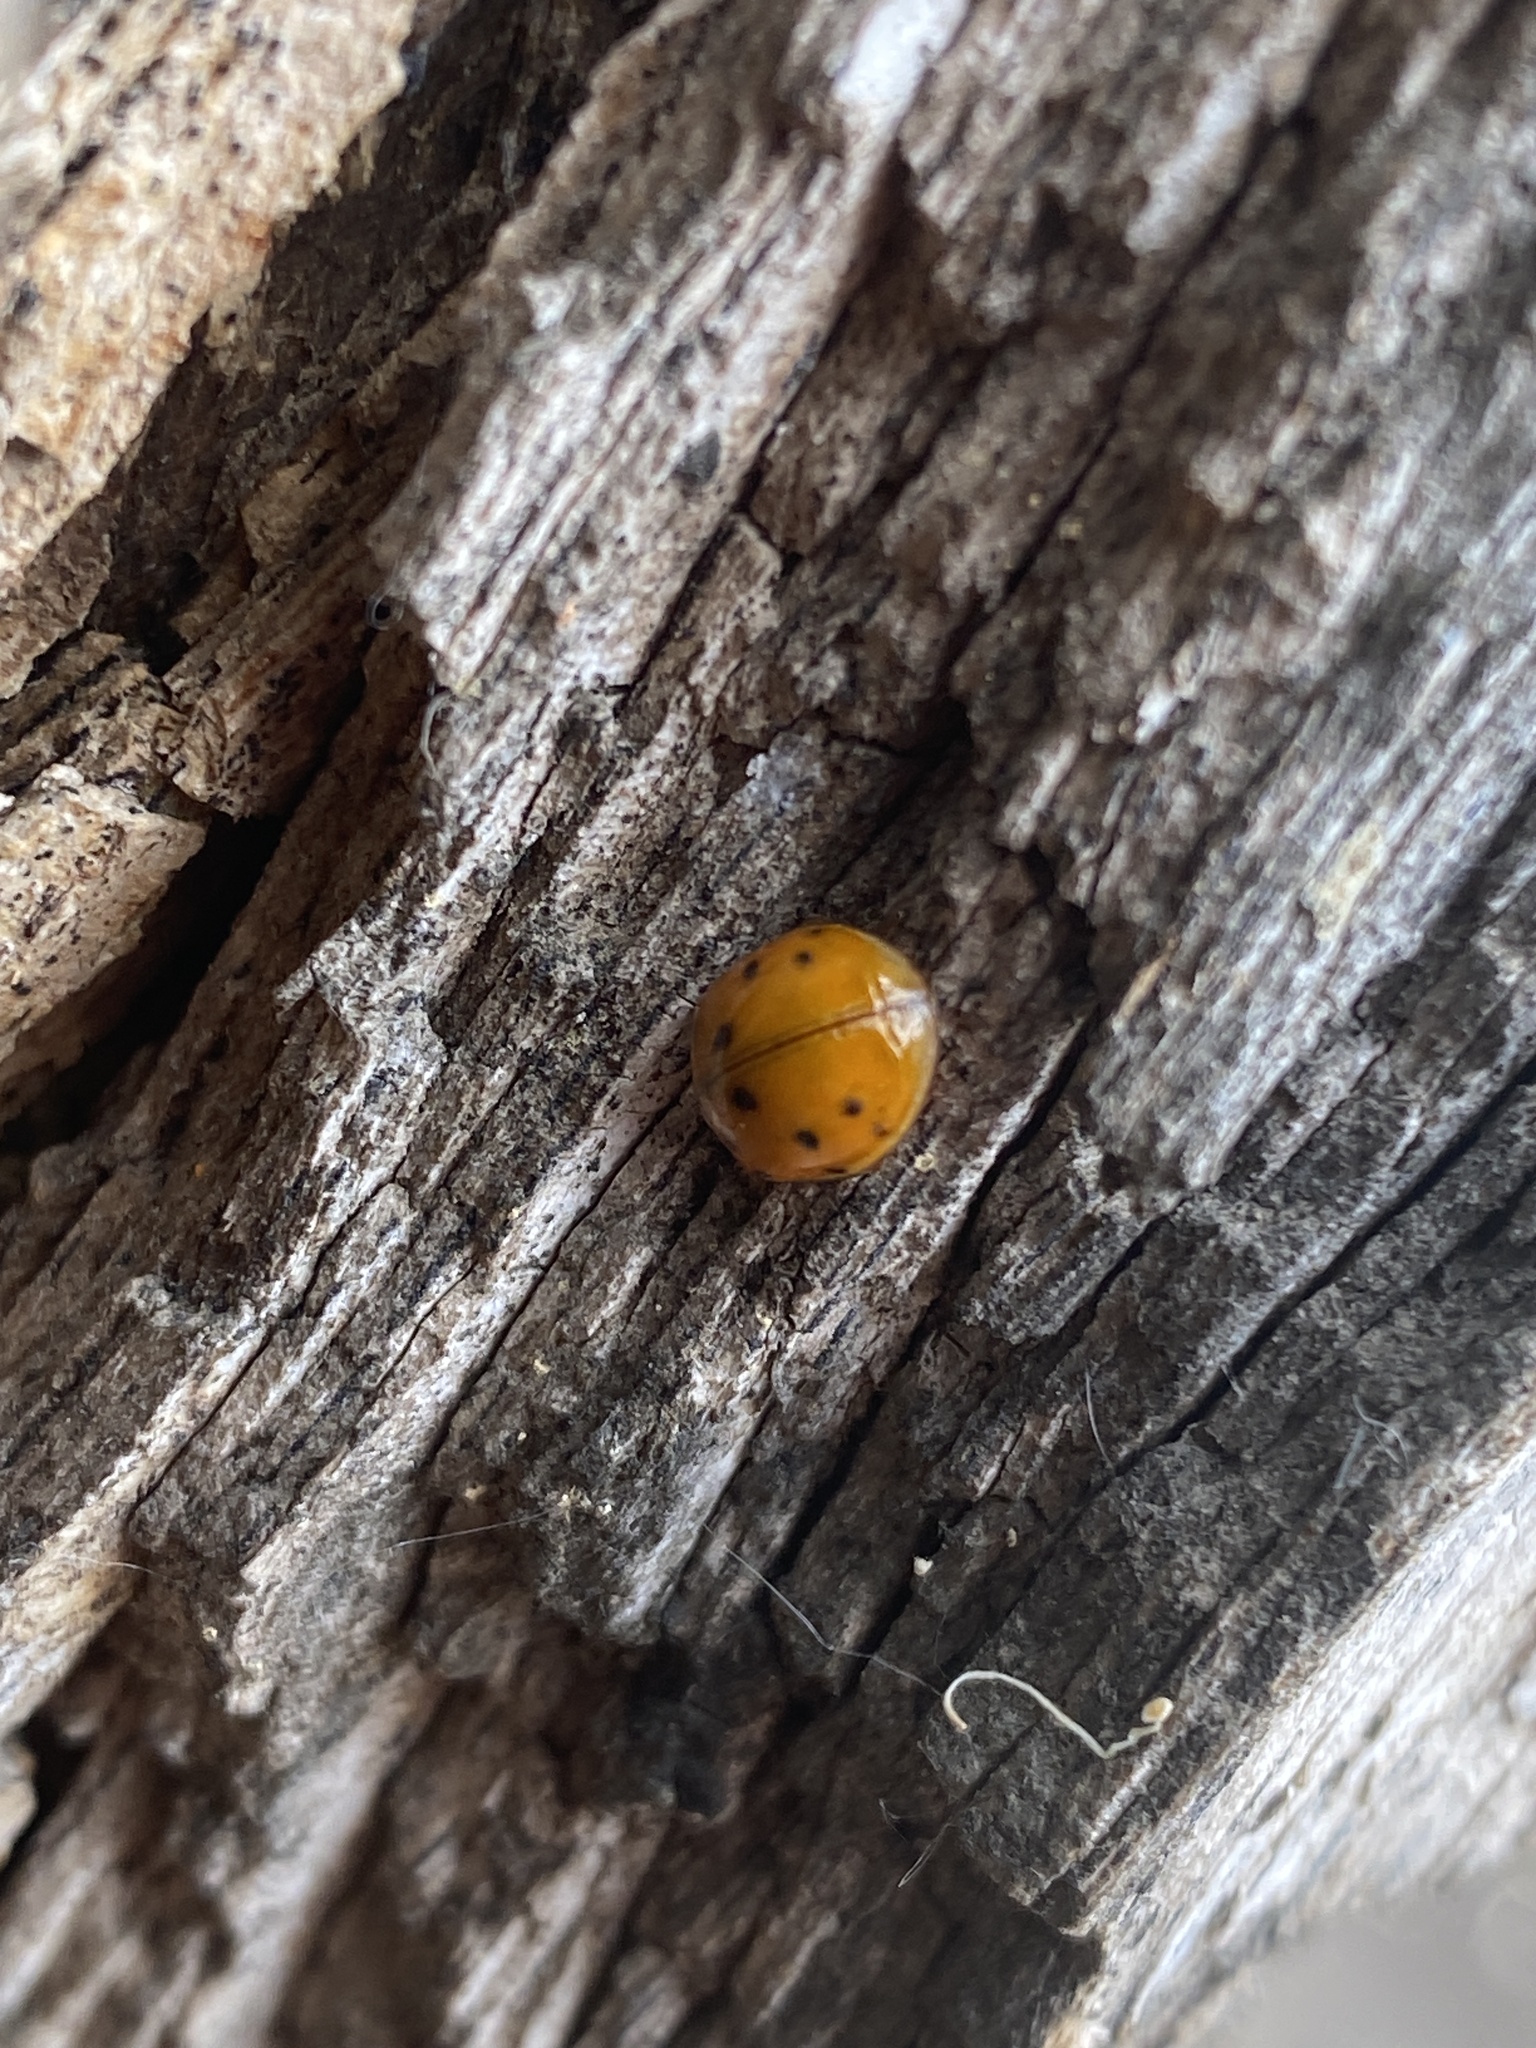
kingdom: Animalia
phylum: Arthropoda
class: Insecta
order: Coleoptera
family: Coccinellidae
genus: Harmonia
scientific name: Harmonia axyridis
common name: Harlequin ladybird
